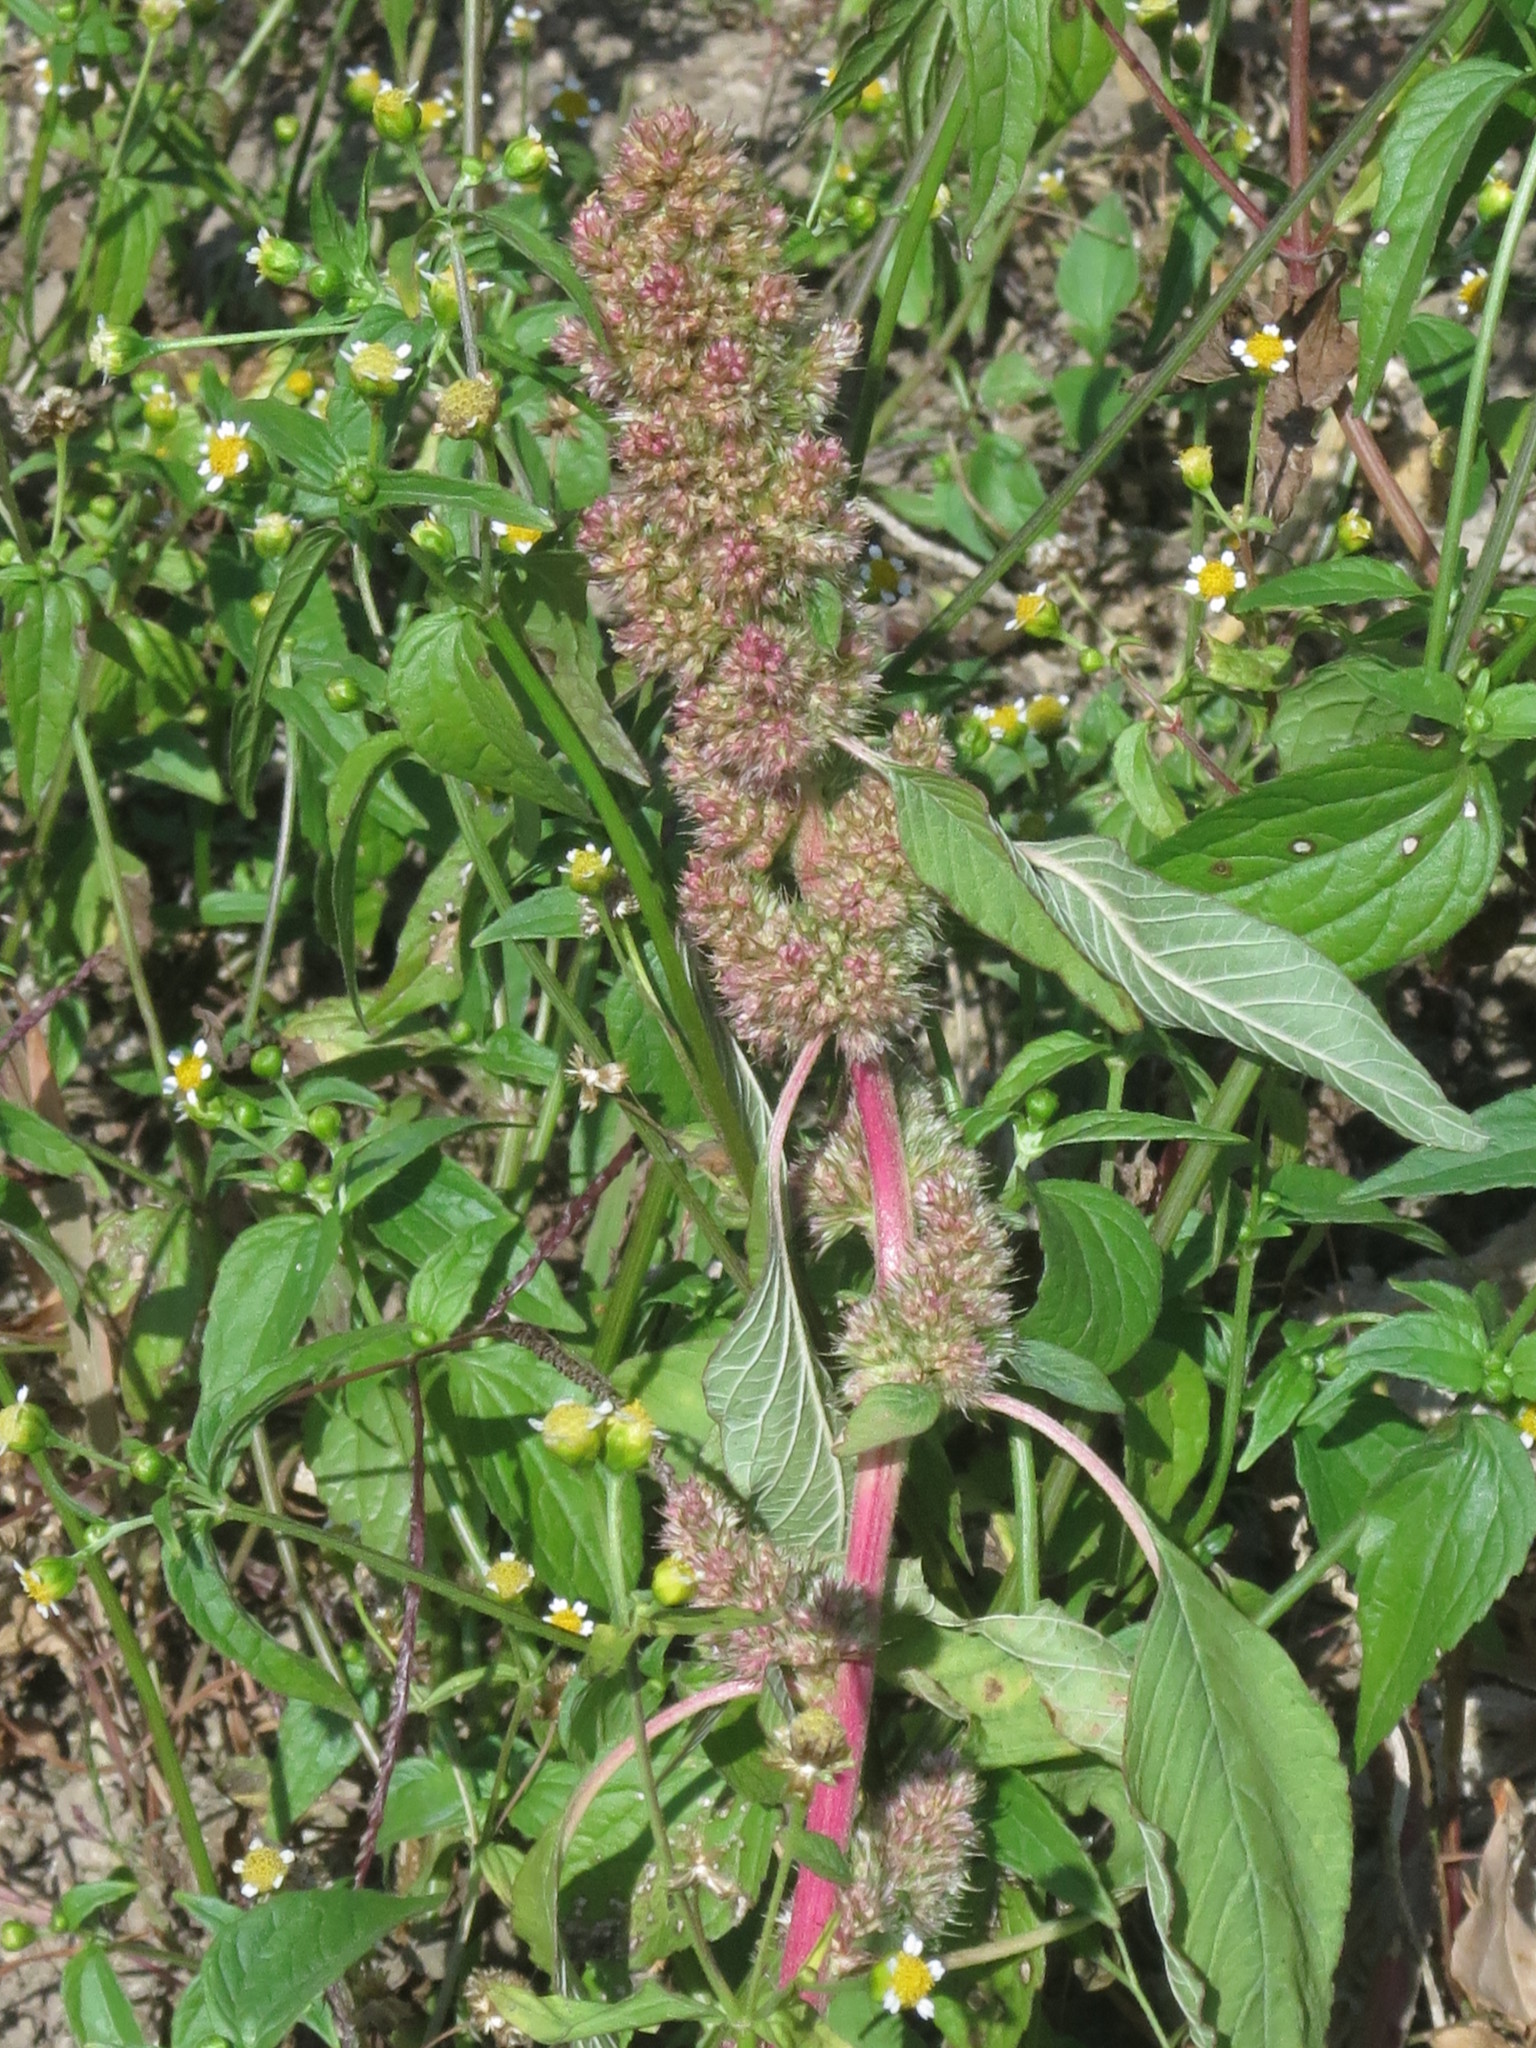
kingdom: Plantae
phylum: Tracheophyta
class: Magnoliopsida
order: Caryophyllales
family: Amaranthaceae
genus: Amaranthus
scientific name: Amaranthus retroflexus
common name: Redroot amaranth
